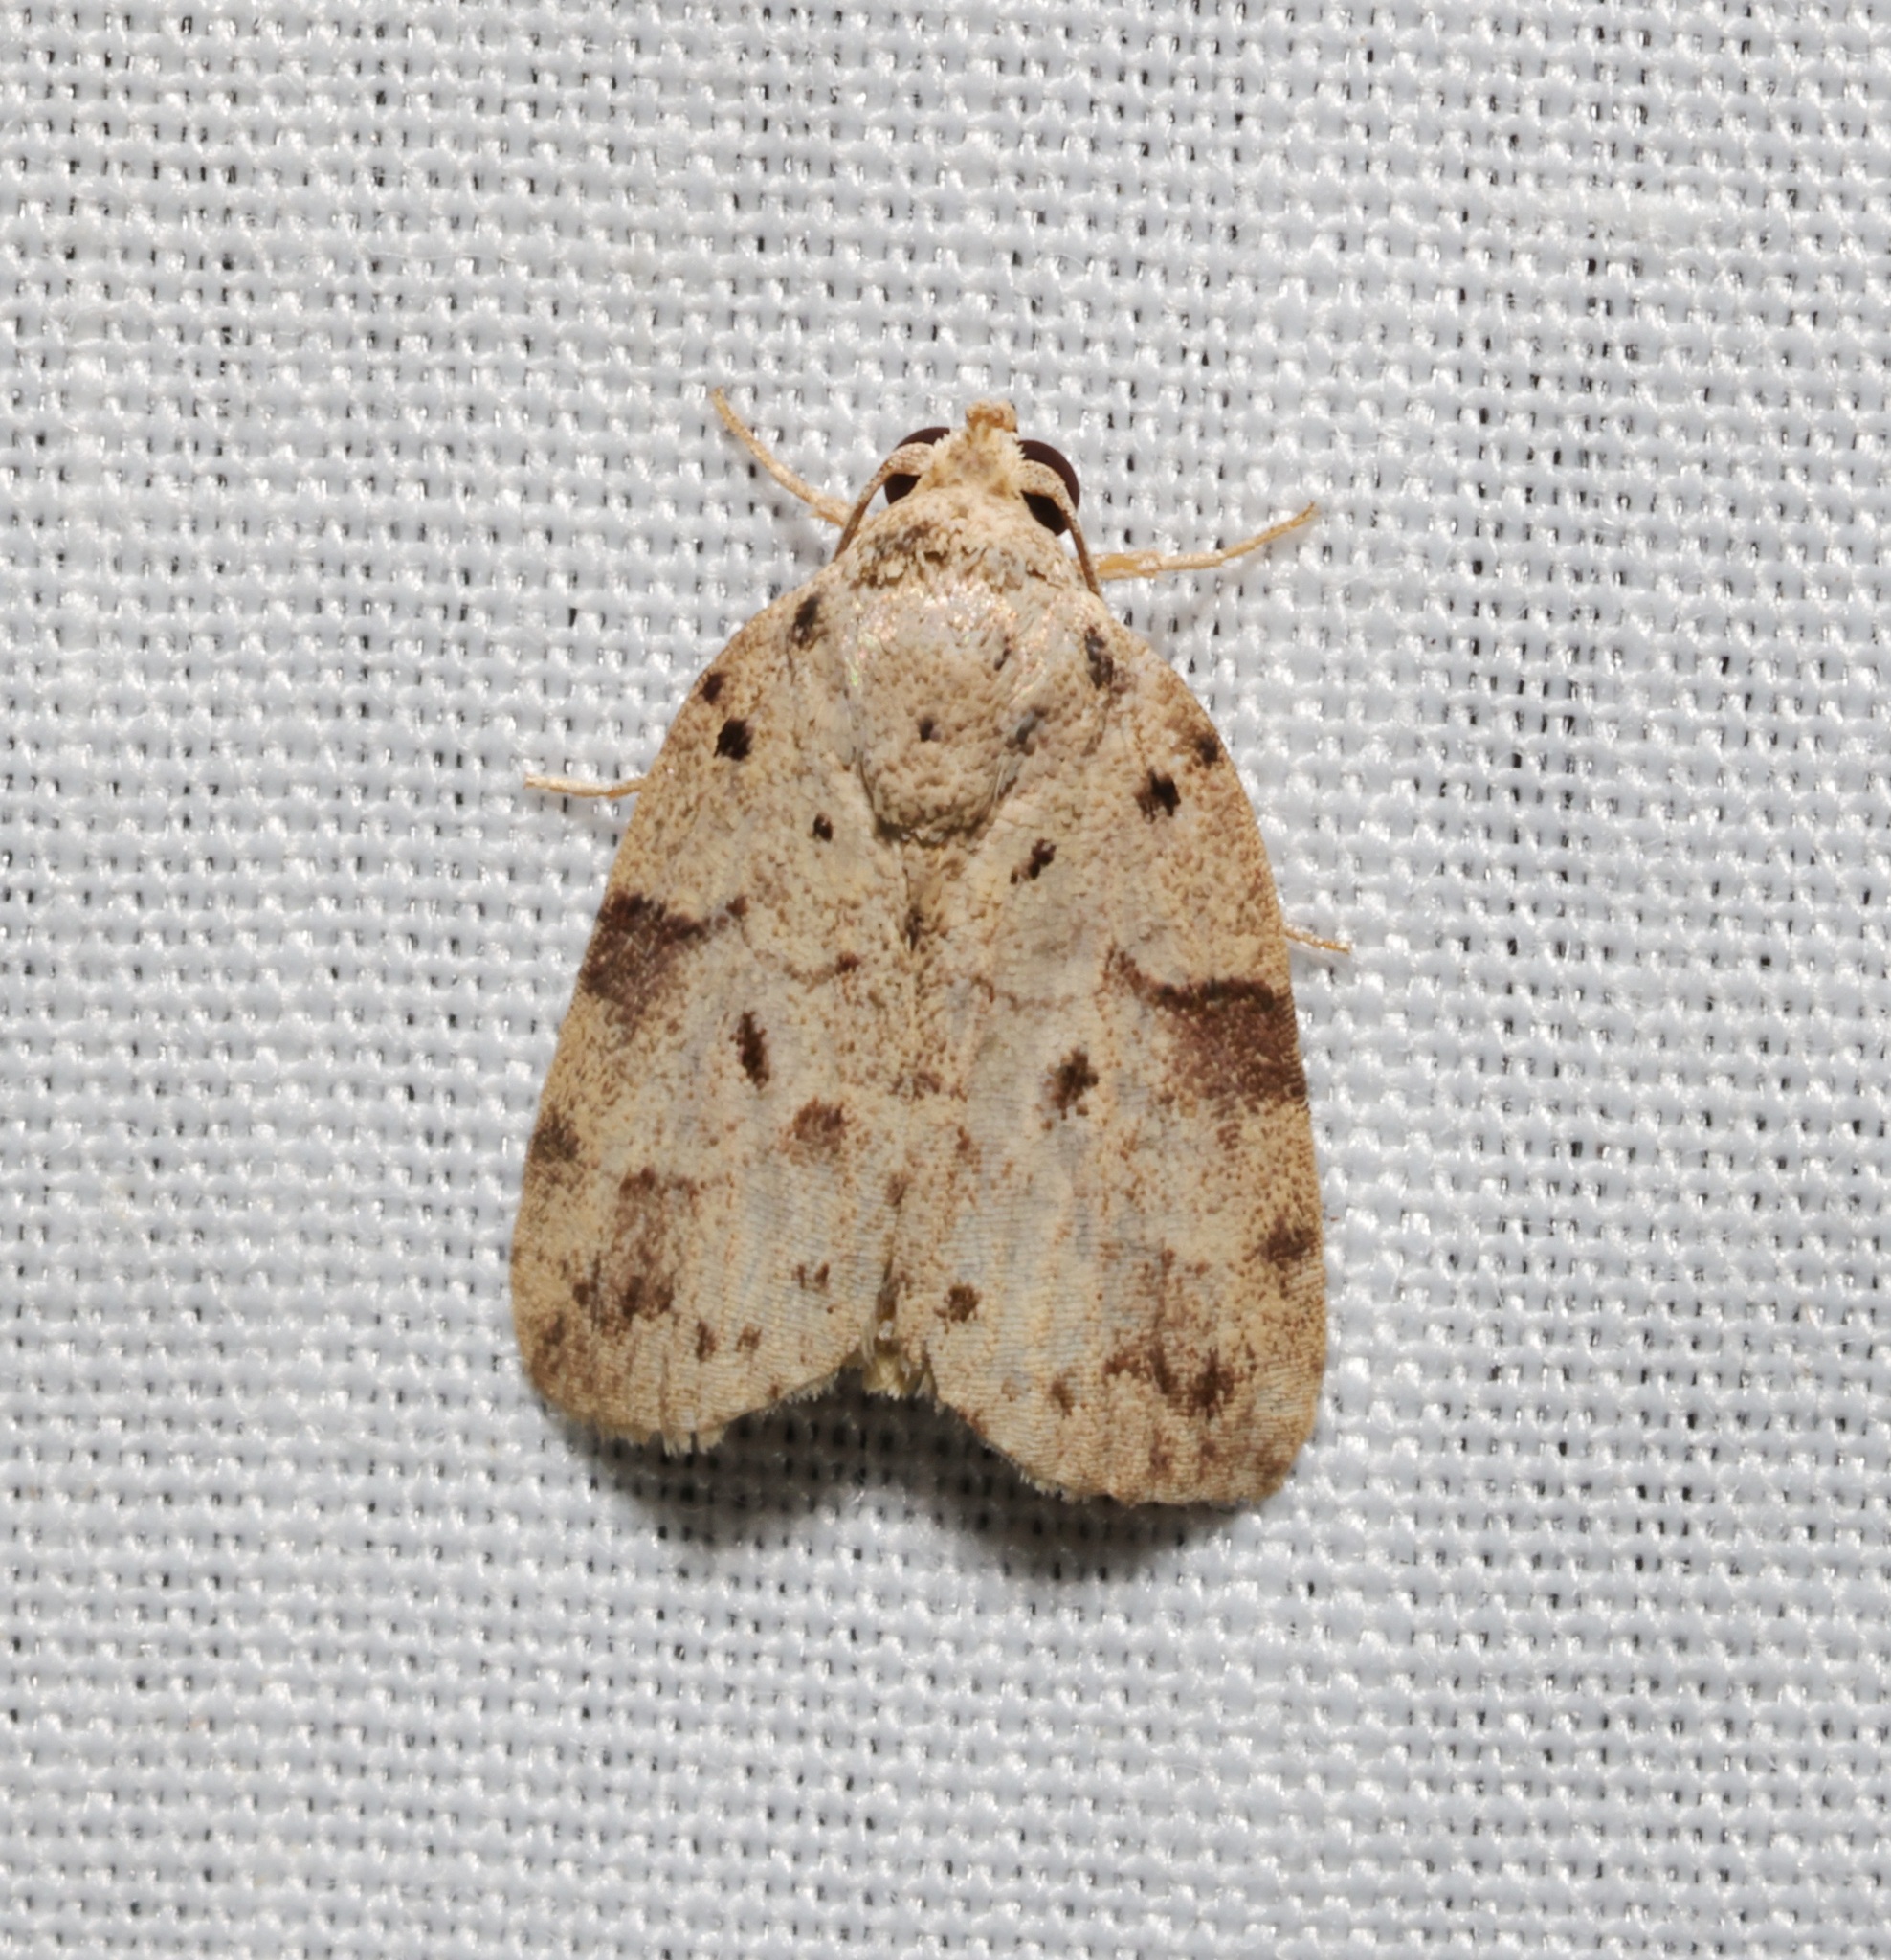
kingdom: Animalia
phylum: Arthropoda
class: Insecta
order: Lepidoptera
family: Nolidae
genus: Giaura
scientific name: Giaura multipunctata
